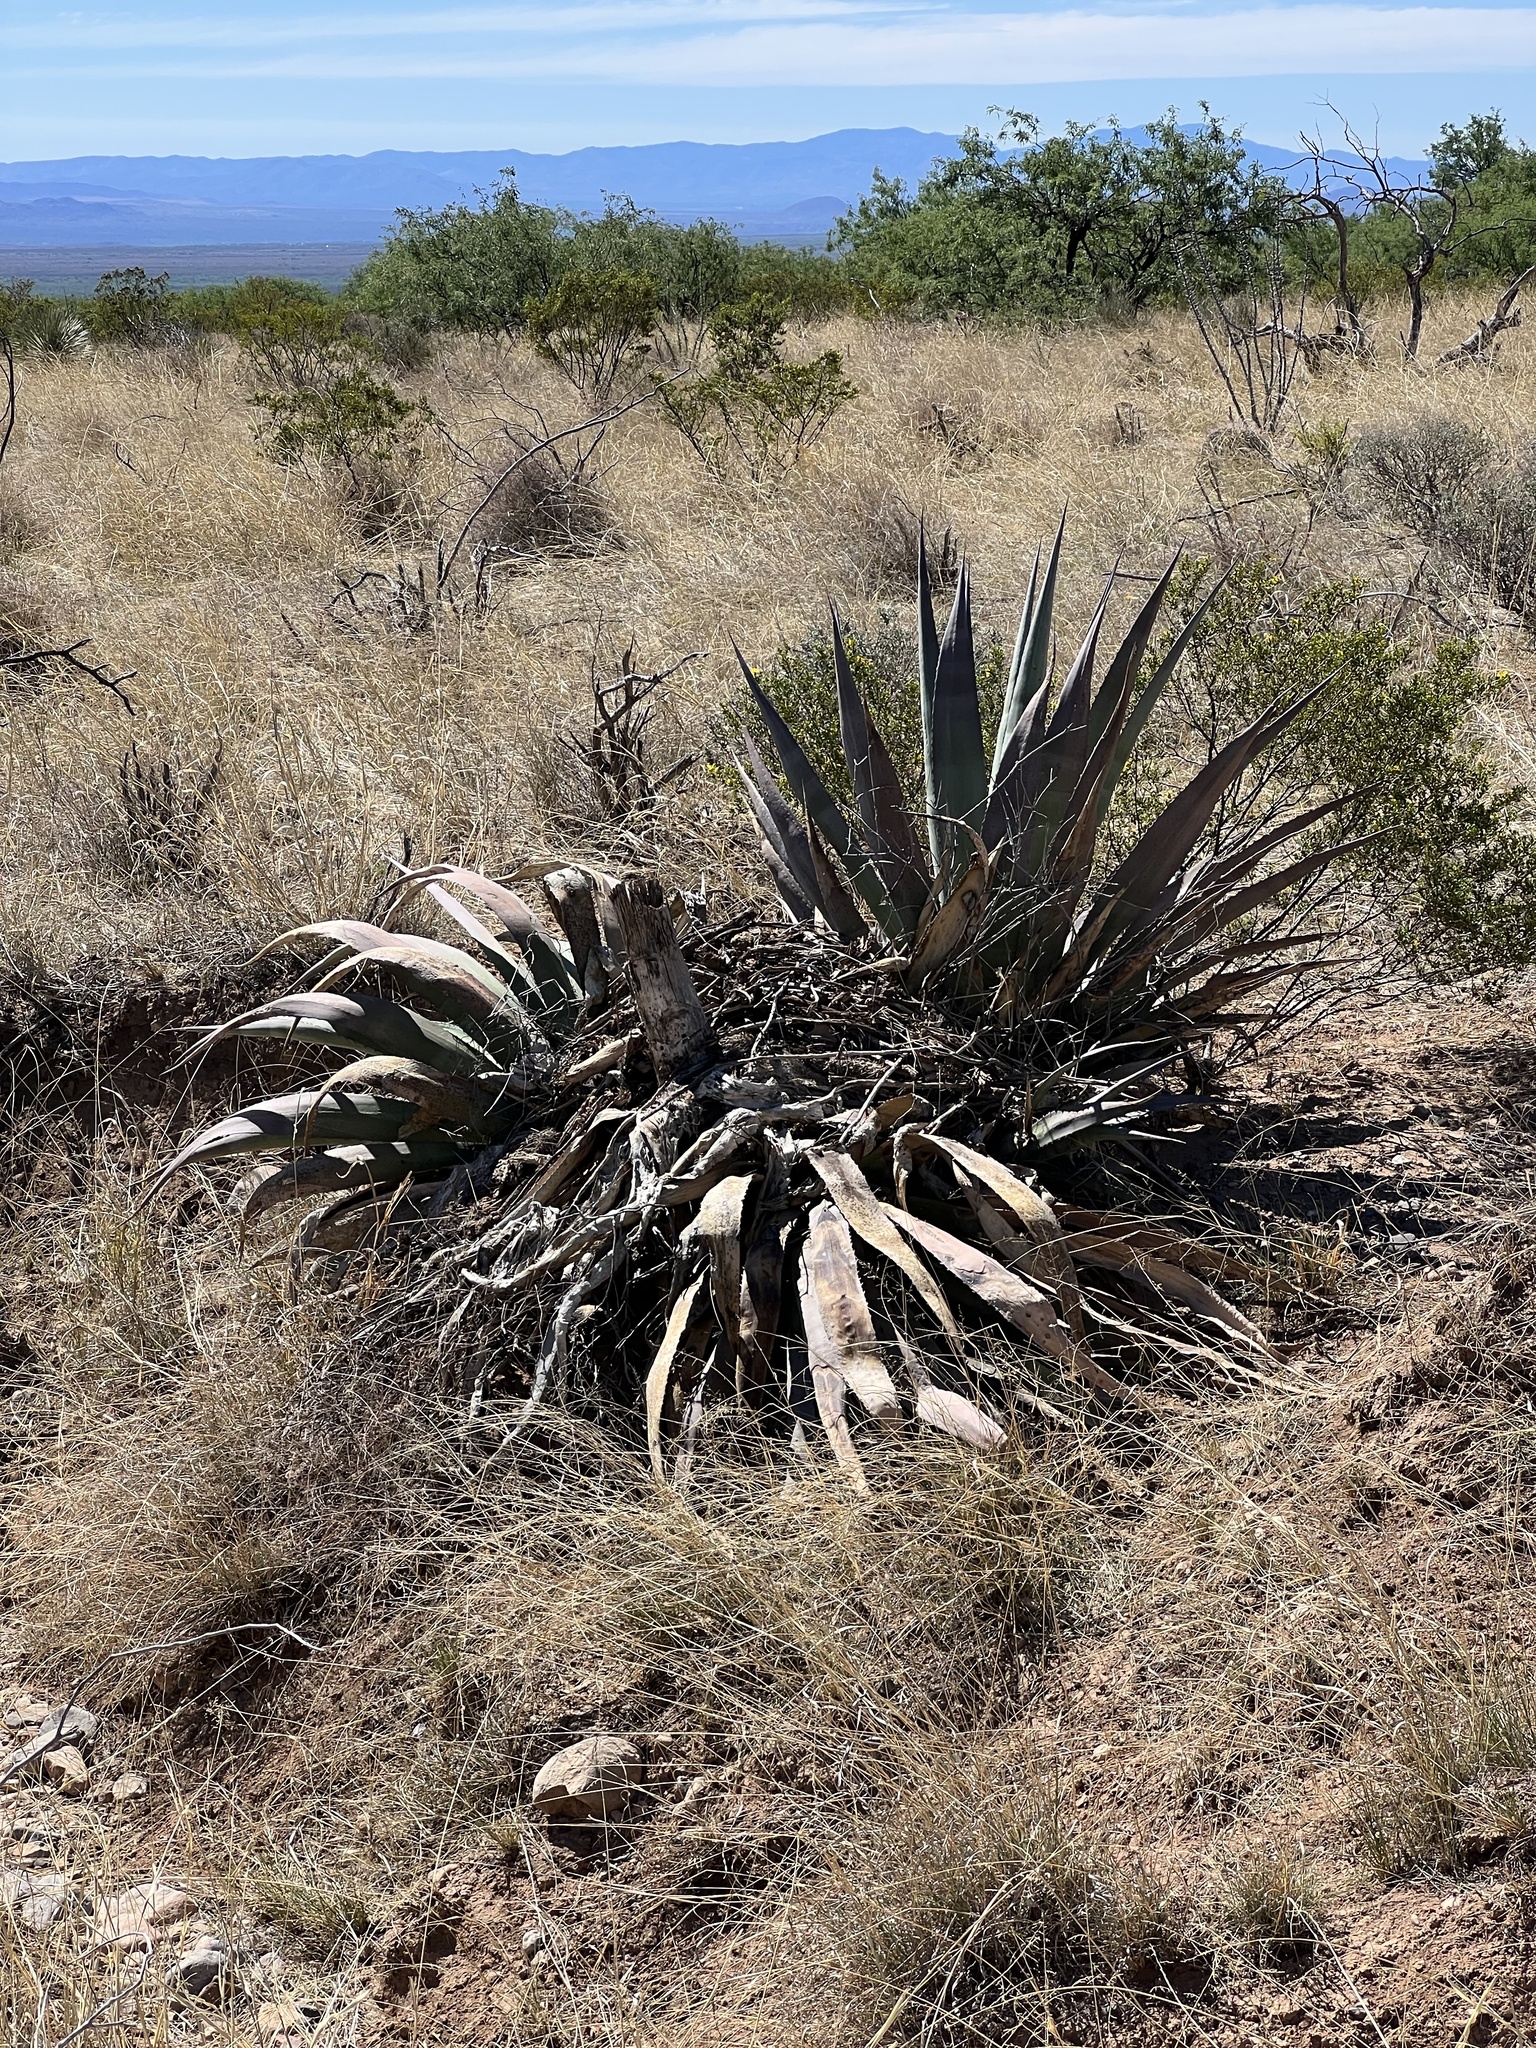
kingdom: Plantae
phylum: Tracheophyta
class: Liliopsida
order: Asparagales
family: Asparagaceae
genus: Agave
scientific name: Agave palmeri
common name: Palmer agave
